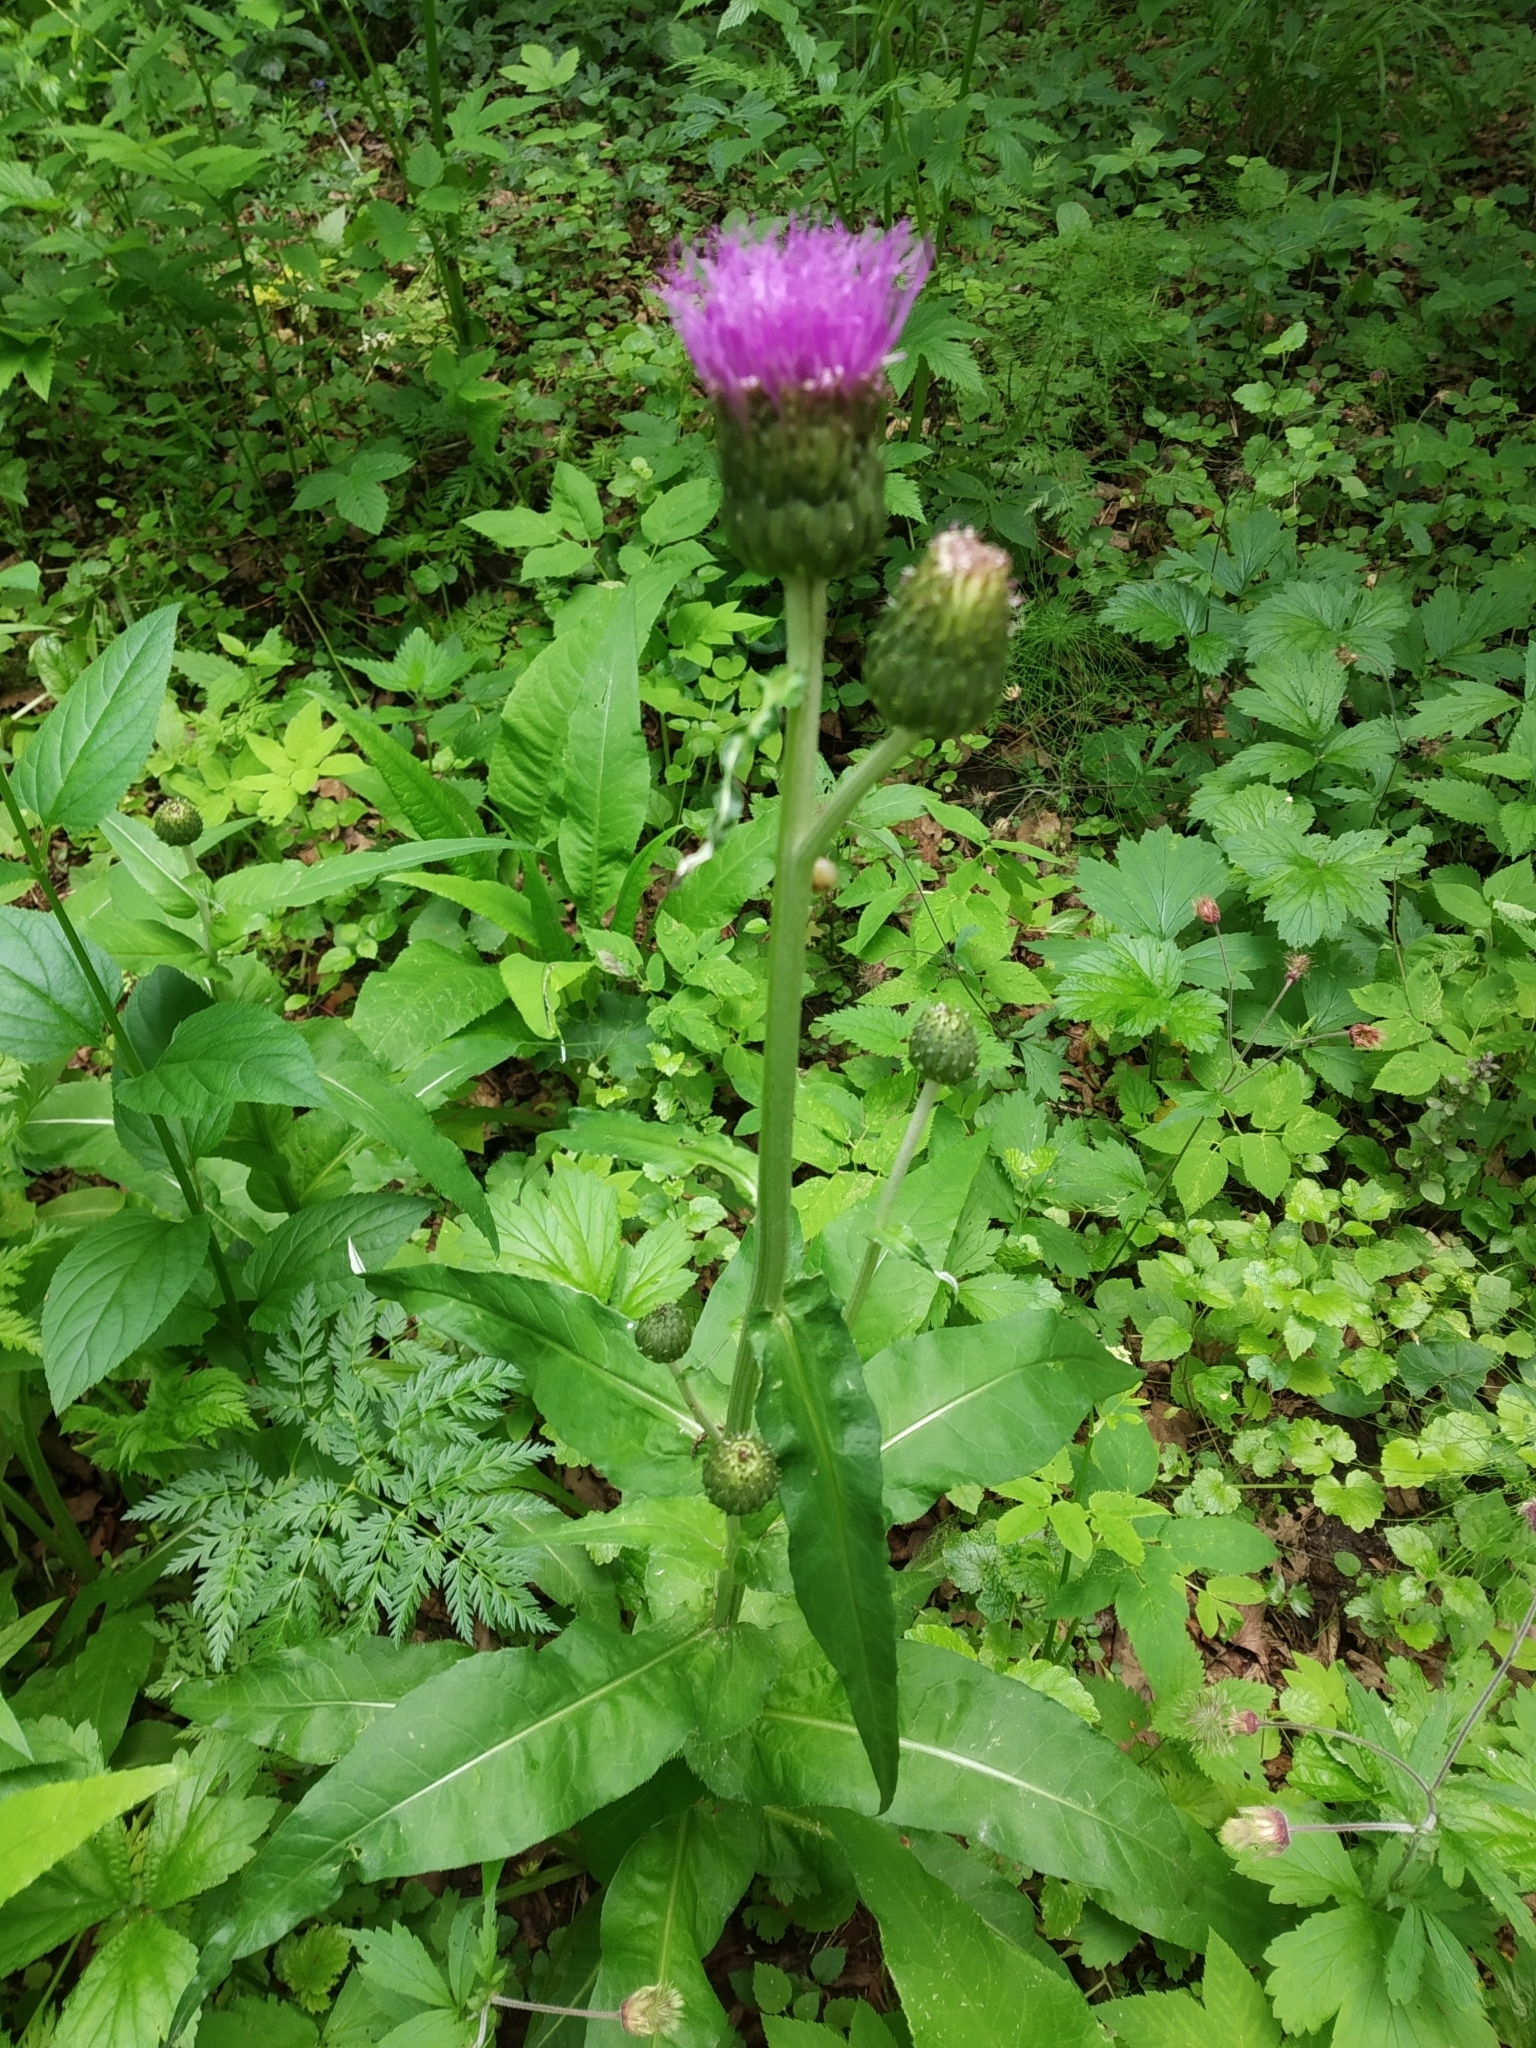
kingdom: Plantae
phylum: Tracheophyta
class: Magnoliopsida
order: Asterales
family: Asteraceae
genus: Cirsium
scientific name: Cirsium heterophyllum
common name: Melancholy thistle
